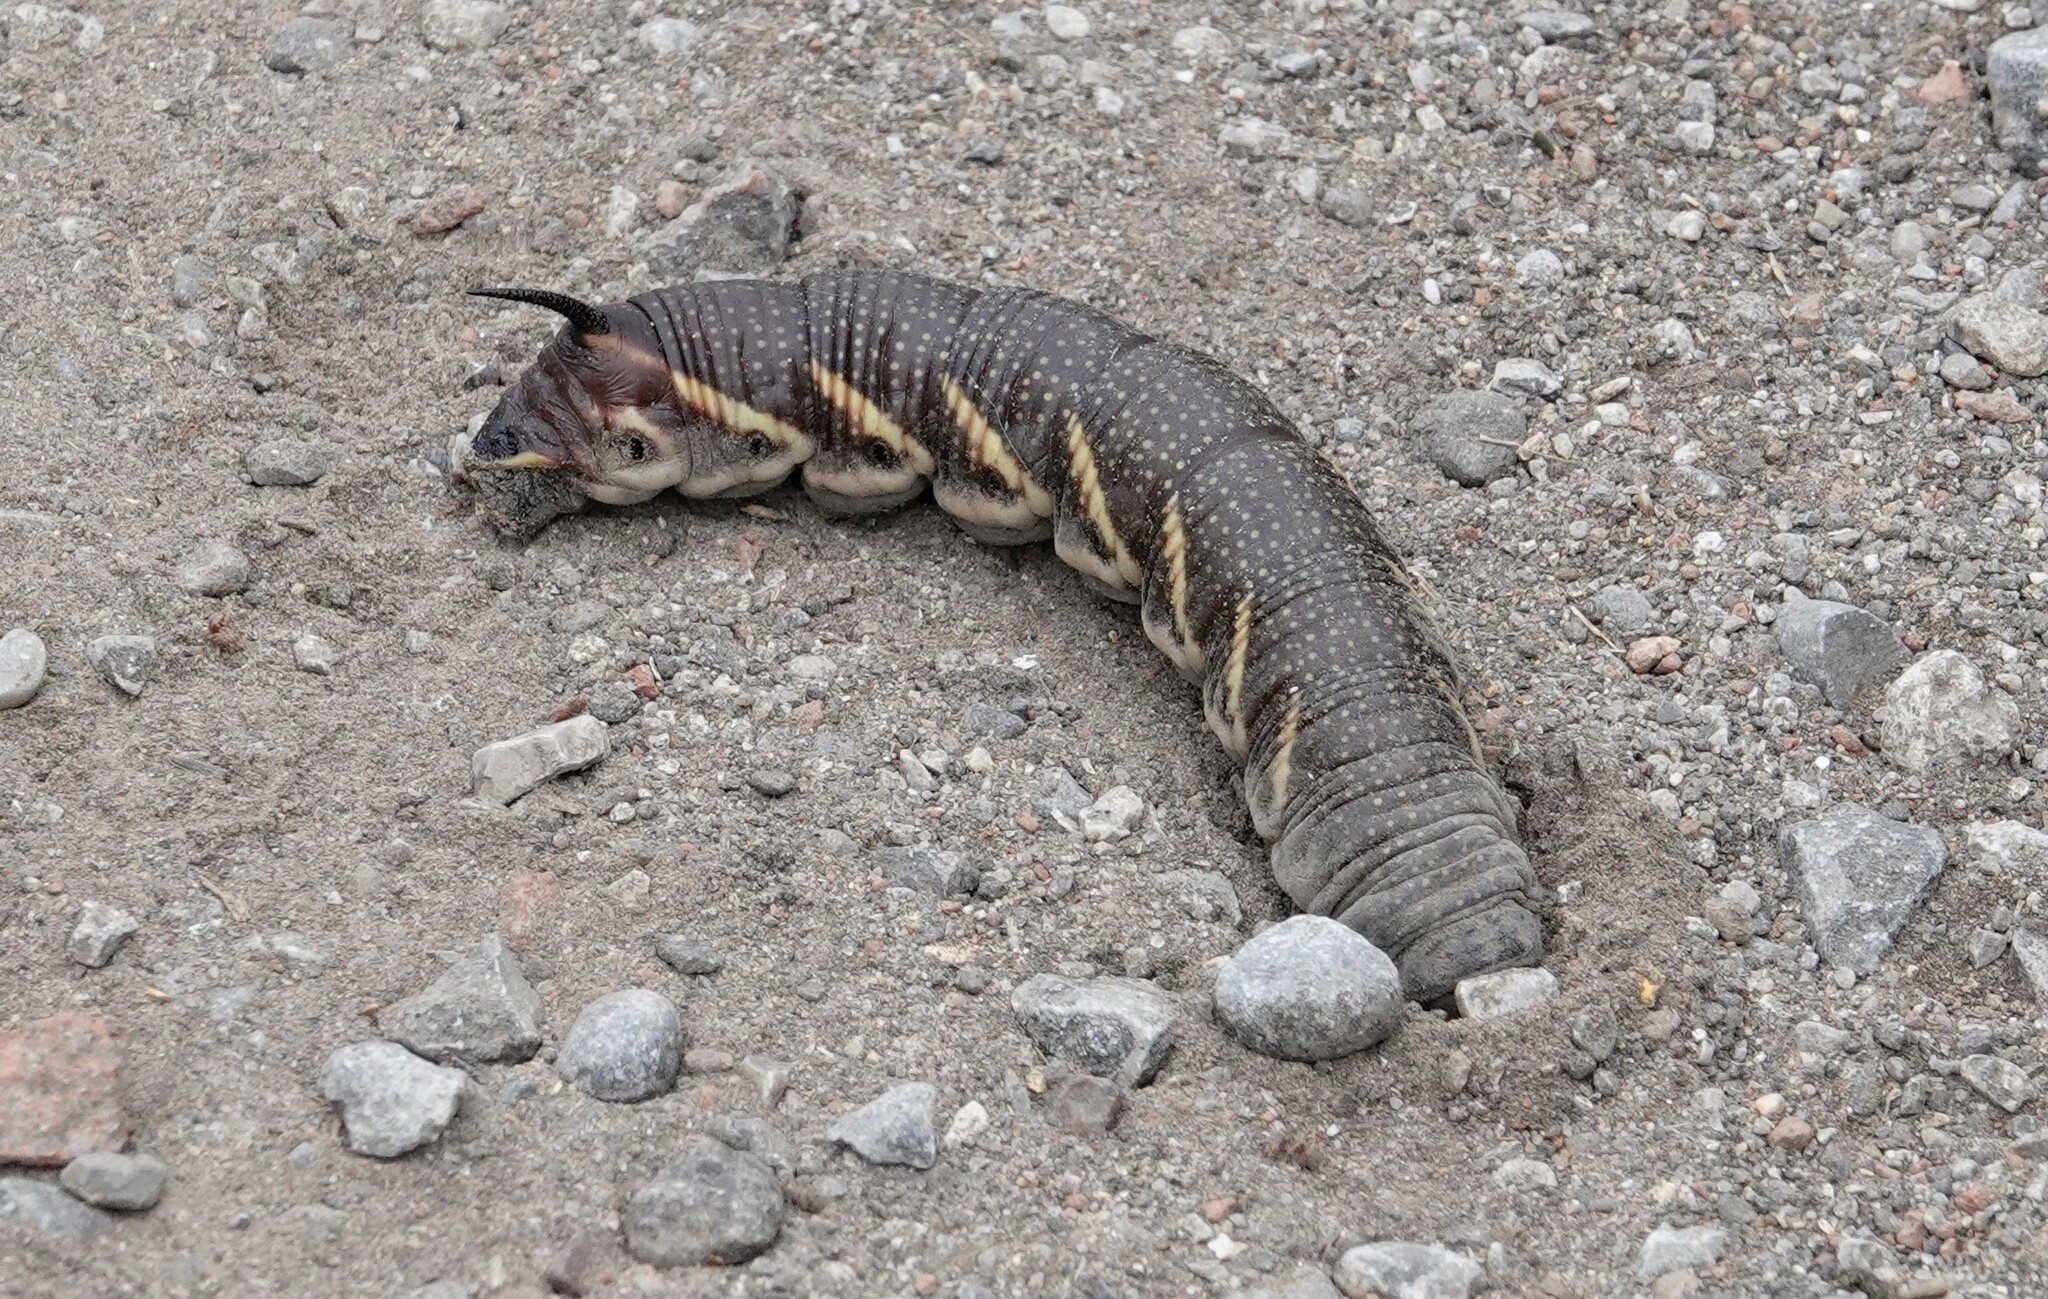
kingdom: Animalia
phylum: Arthropoda
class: Insecta
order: Lepidoptera
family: Sphingidae
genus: Manduca
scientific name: Manduca quinquemaculatus
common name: Five-spotted hawk-moth
